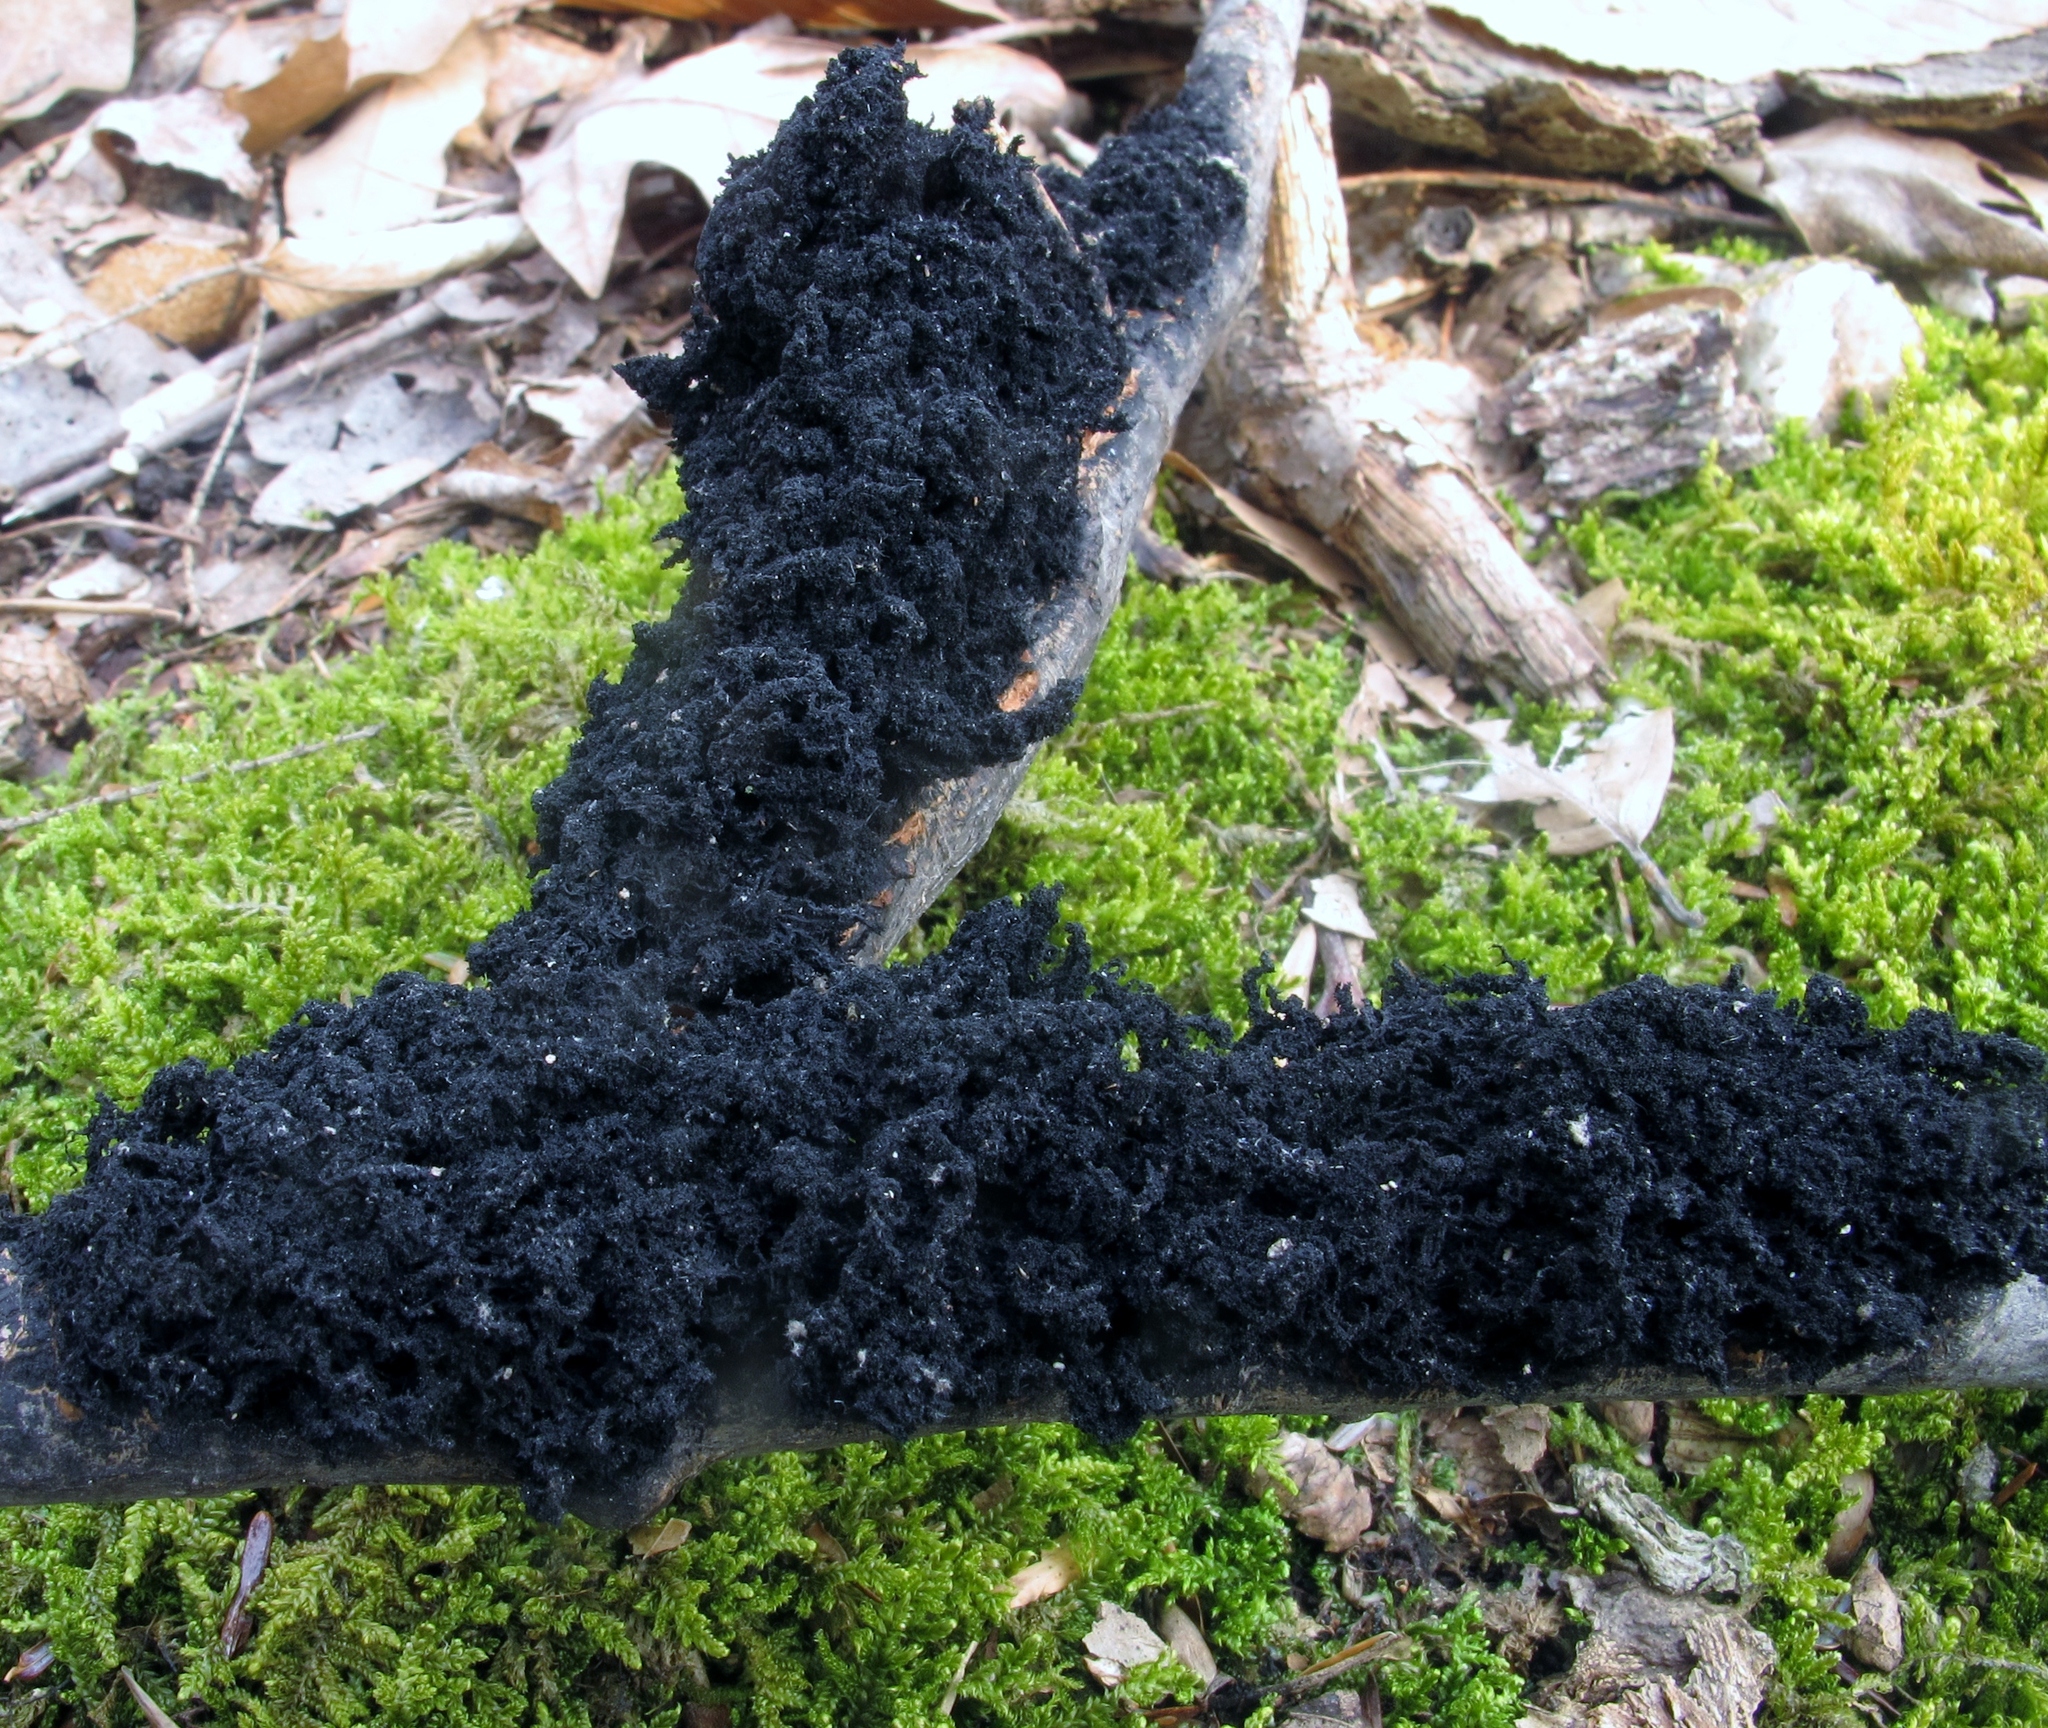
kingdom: Fungi
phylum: Ascomycota
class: Dothideomycetes
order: Capnodiales
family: Capnodiaceae
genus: Scorias
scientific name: Scorias spongiosa
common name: Black sooty mold
